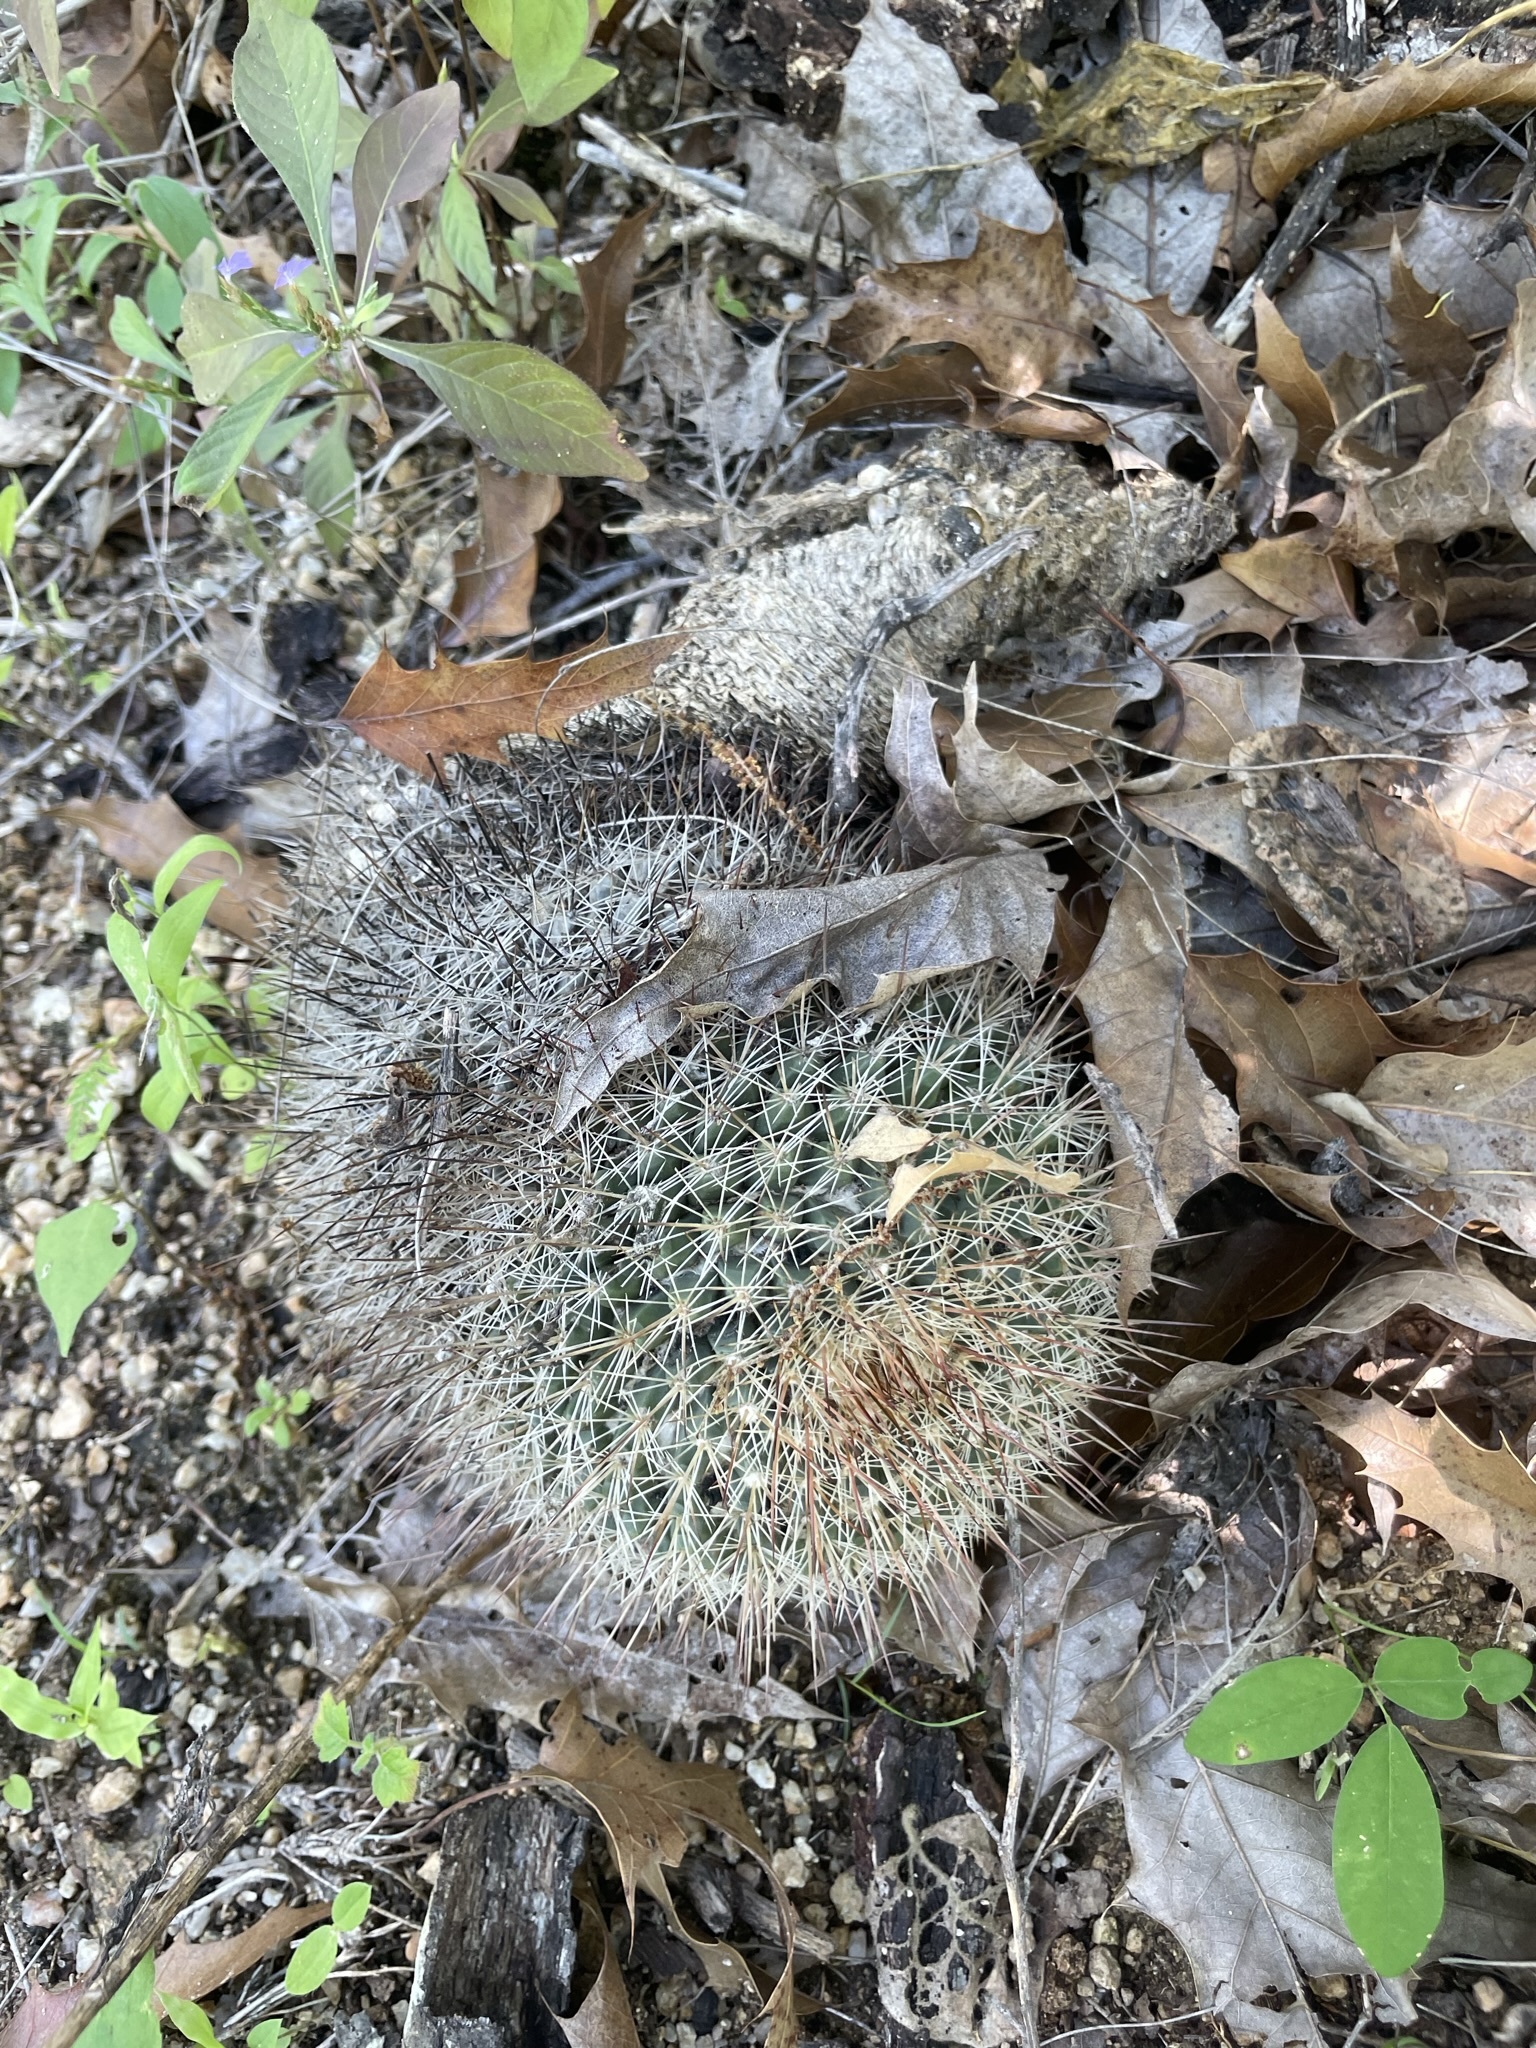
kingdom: Plantae
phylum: Tracheophyta
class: Magnoliopsida
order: Caryophyllales
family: Cactaceae
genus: Mammillaria
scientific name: Mammillaria petrophila
